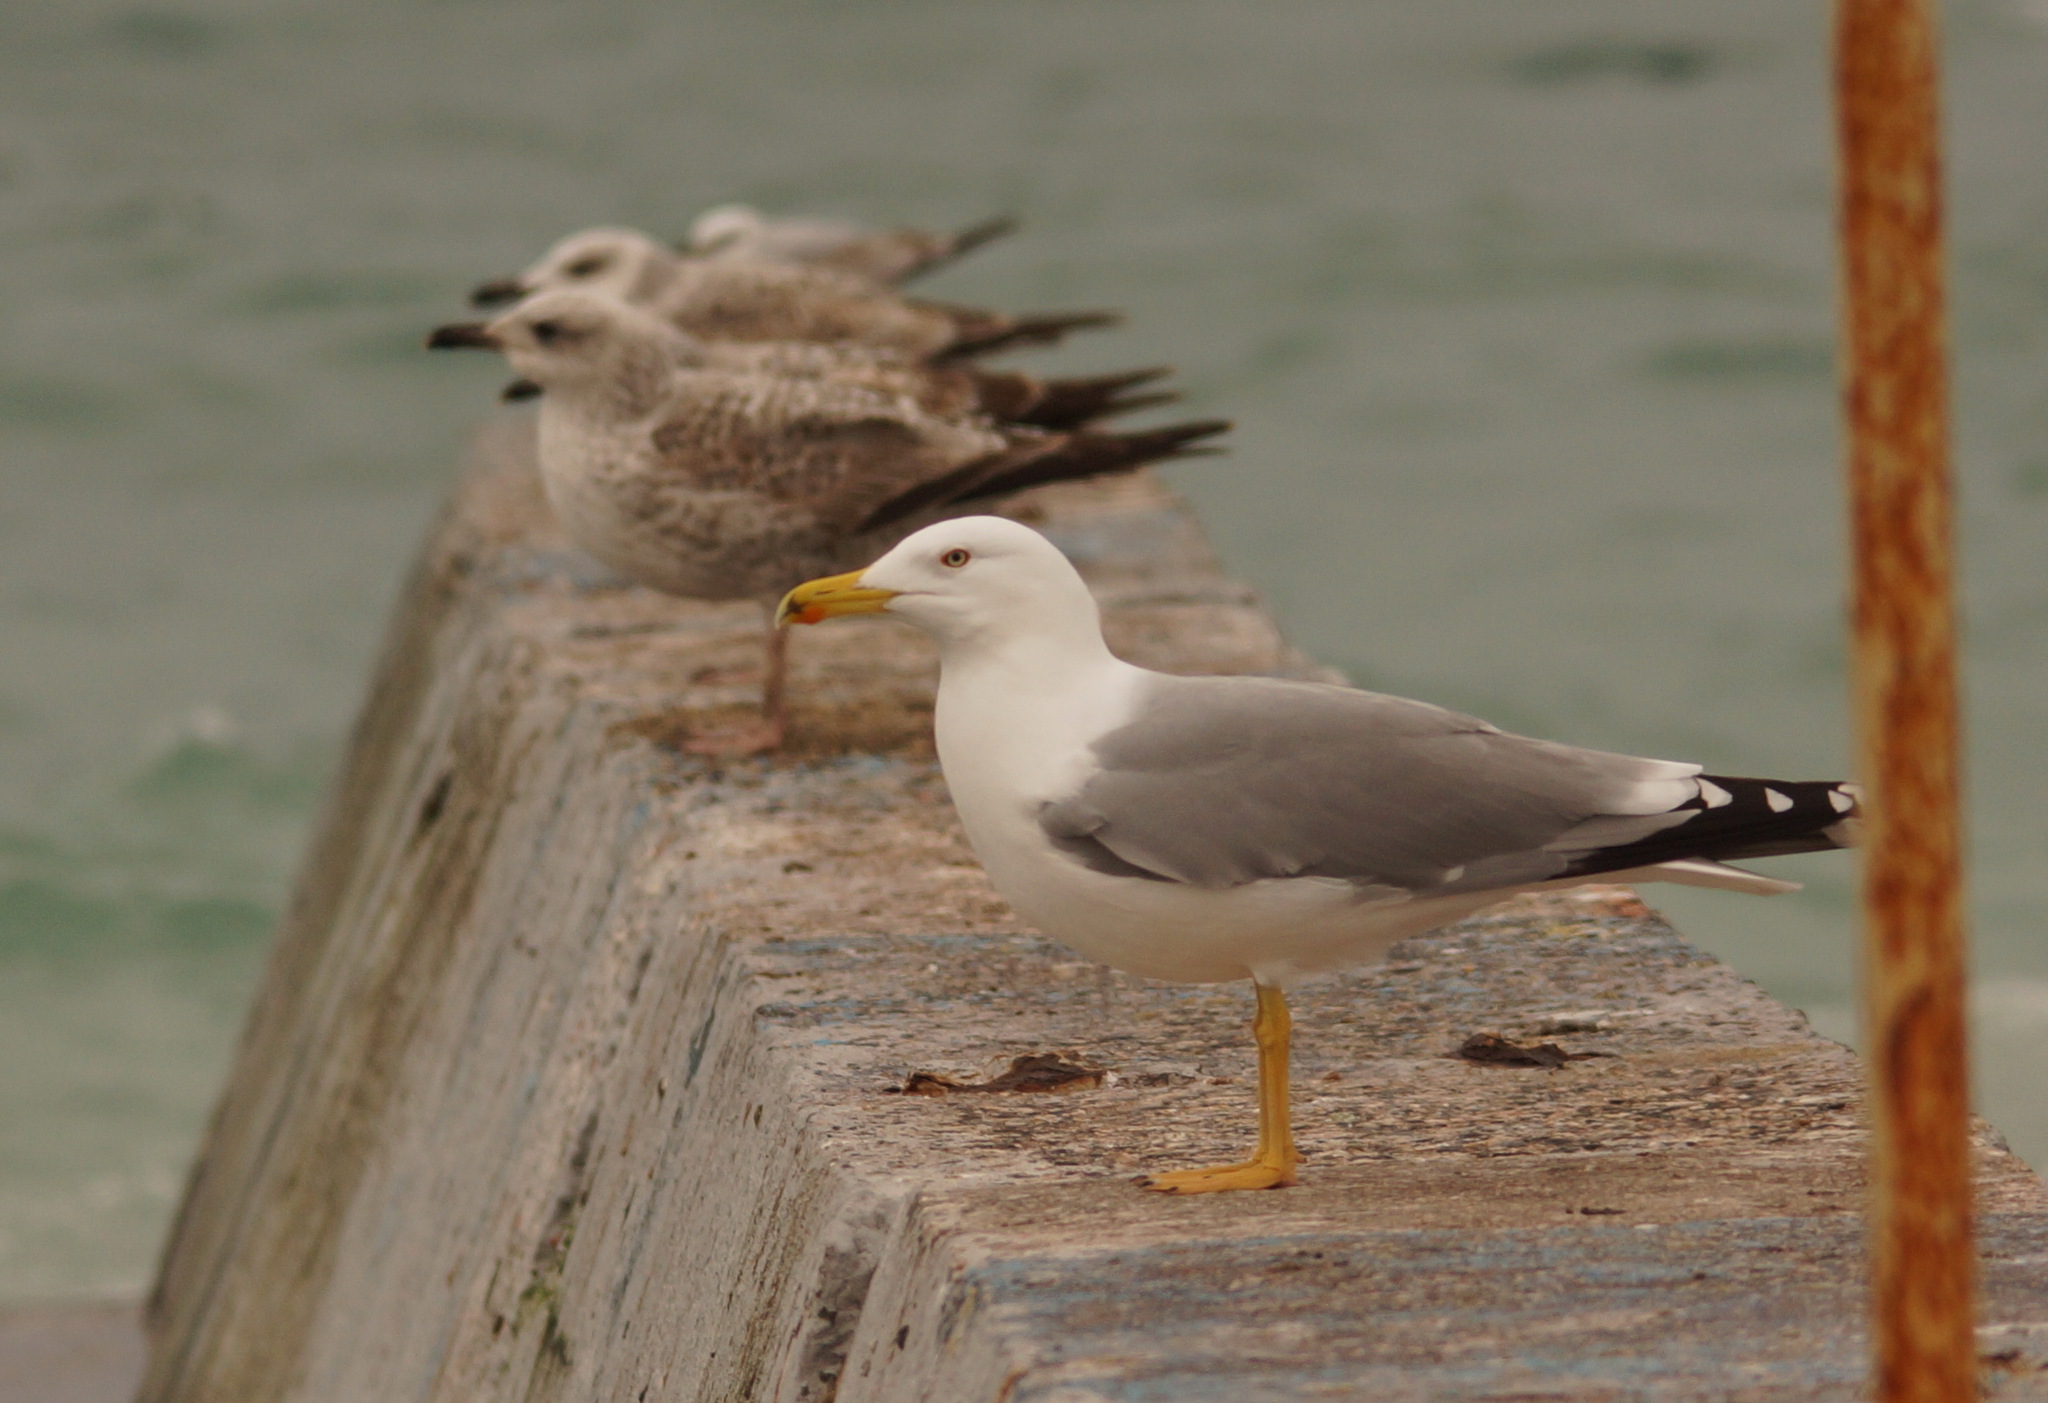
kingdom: Animalia
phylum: Chordata
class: Aves
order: Charadriiformes
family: Laridae
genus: Larus
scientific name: Larus michahellis
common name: Yellow-legged gull
